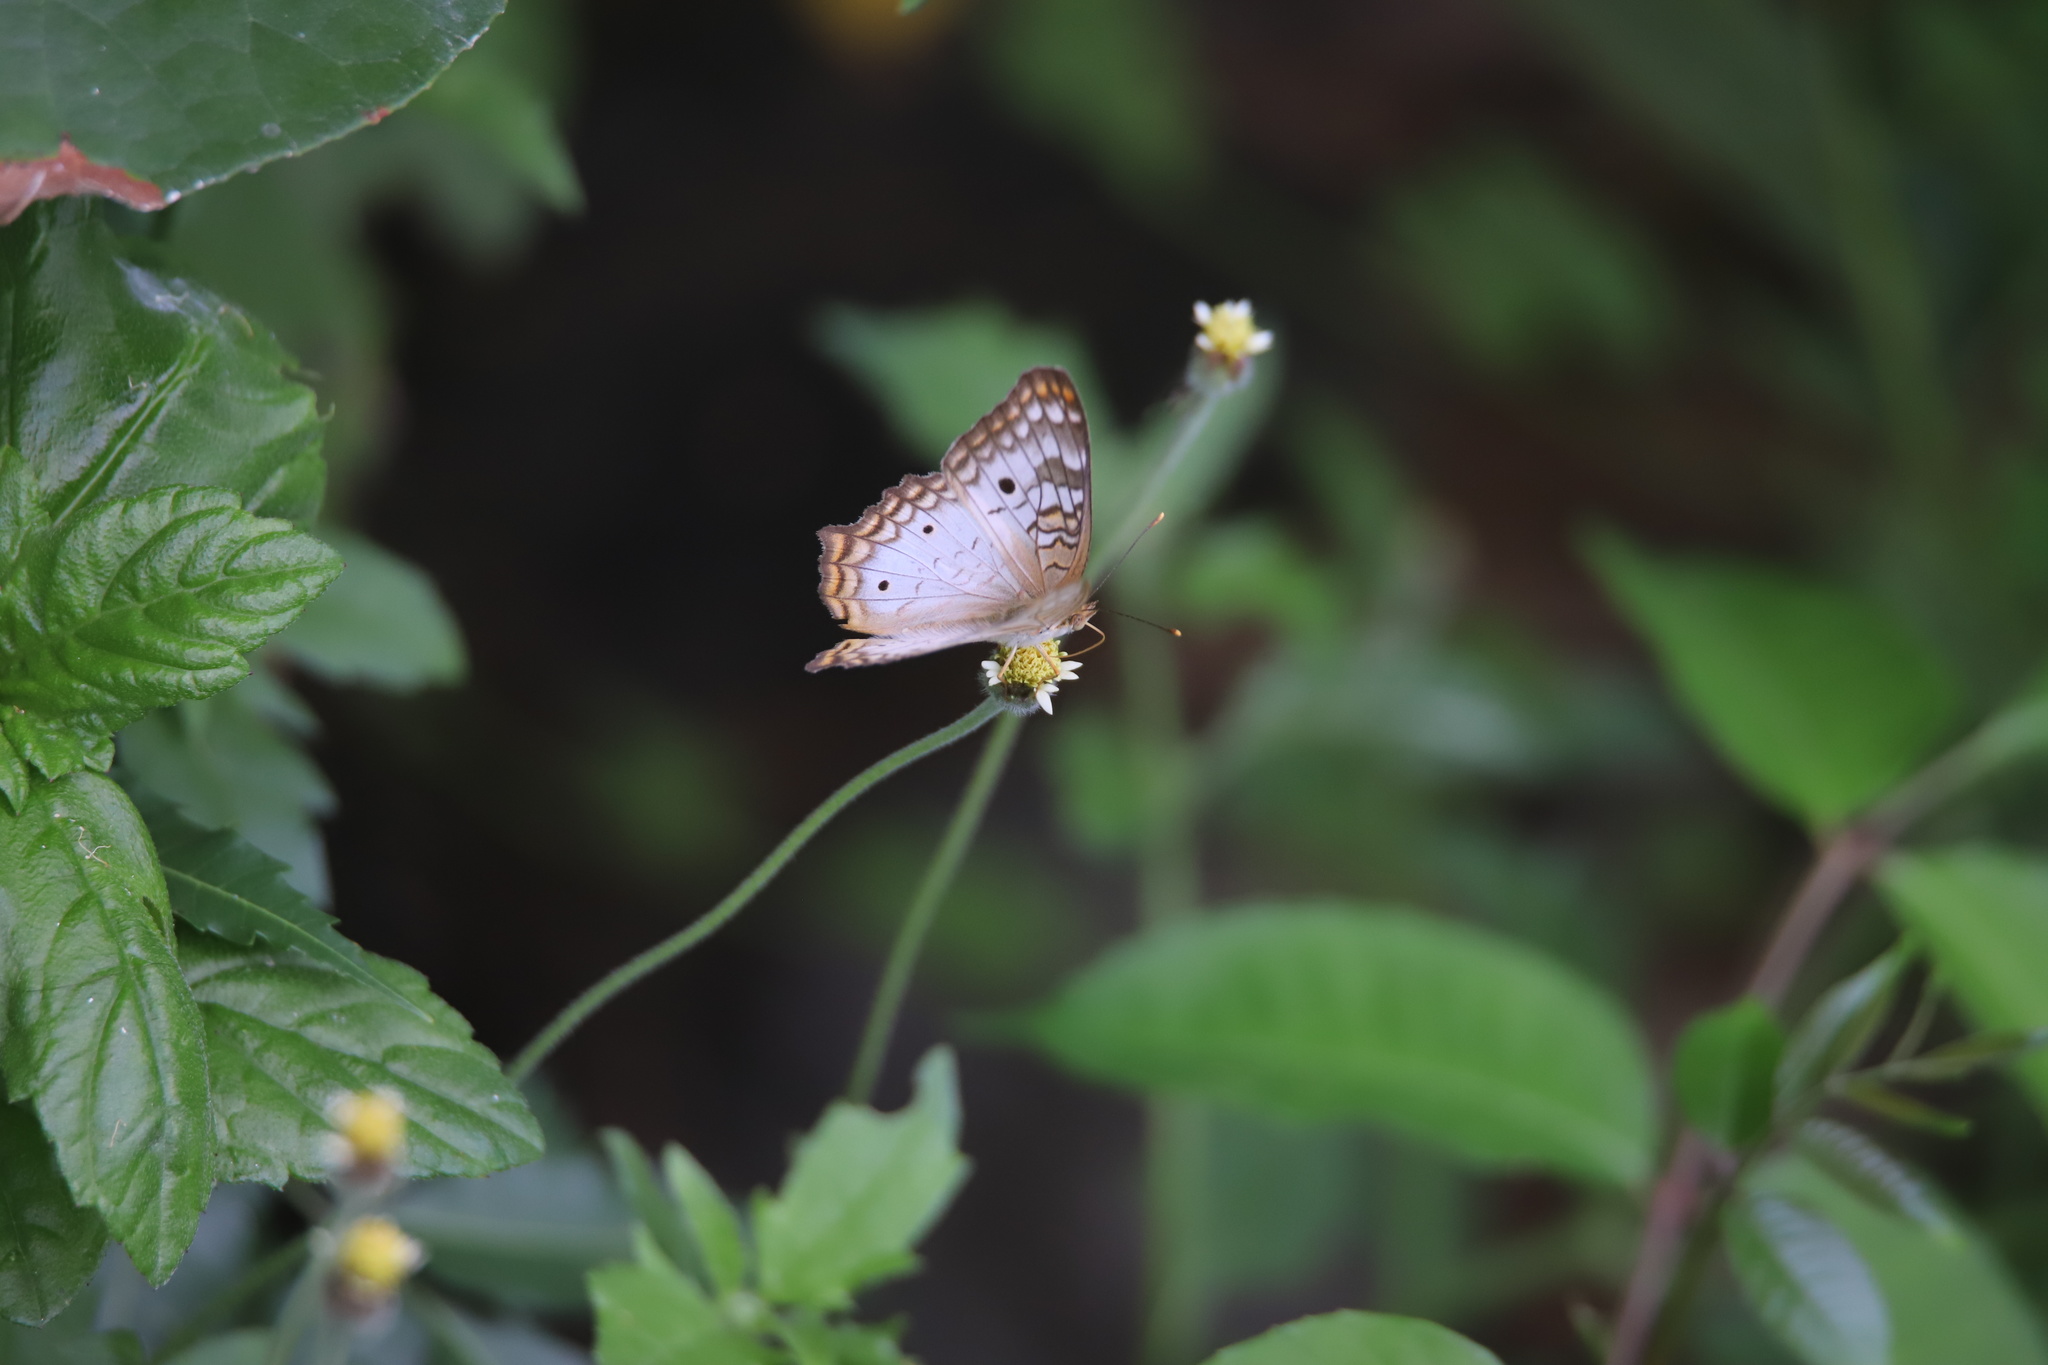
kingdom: Animalia
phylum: Arthropoda
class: Insecta
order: Lepidoptera
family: Nymphalidae
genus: Anartia
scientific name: Anartia jatrophae
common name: White peacock
